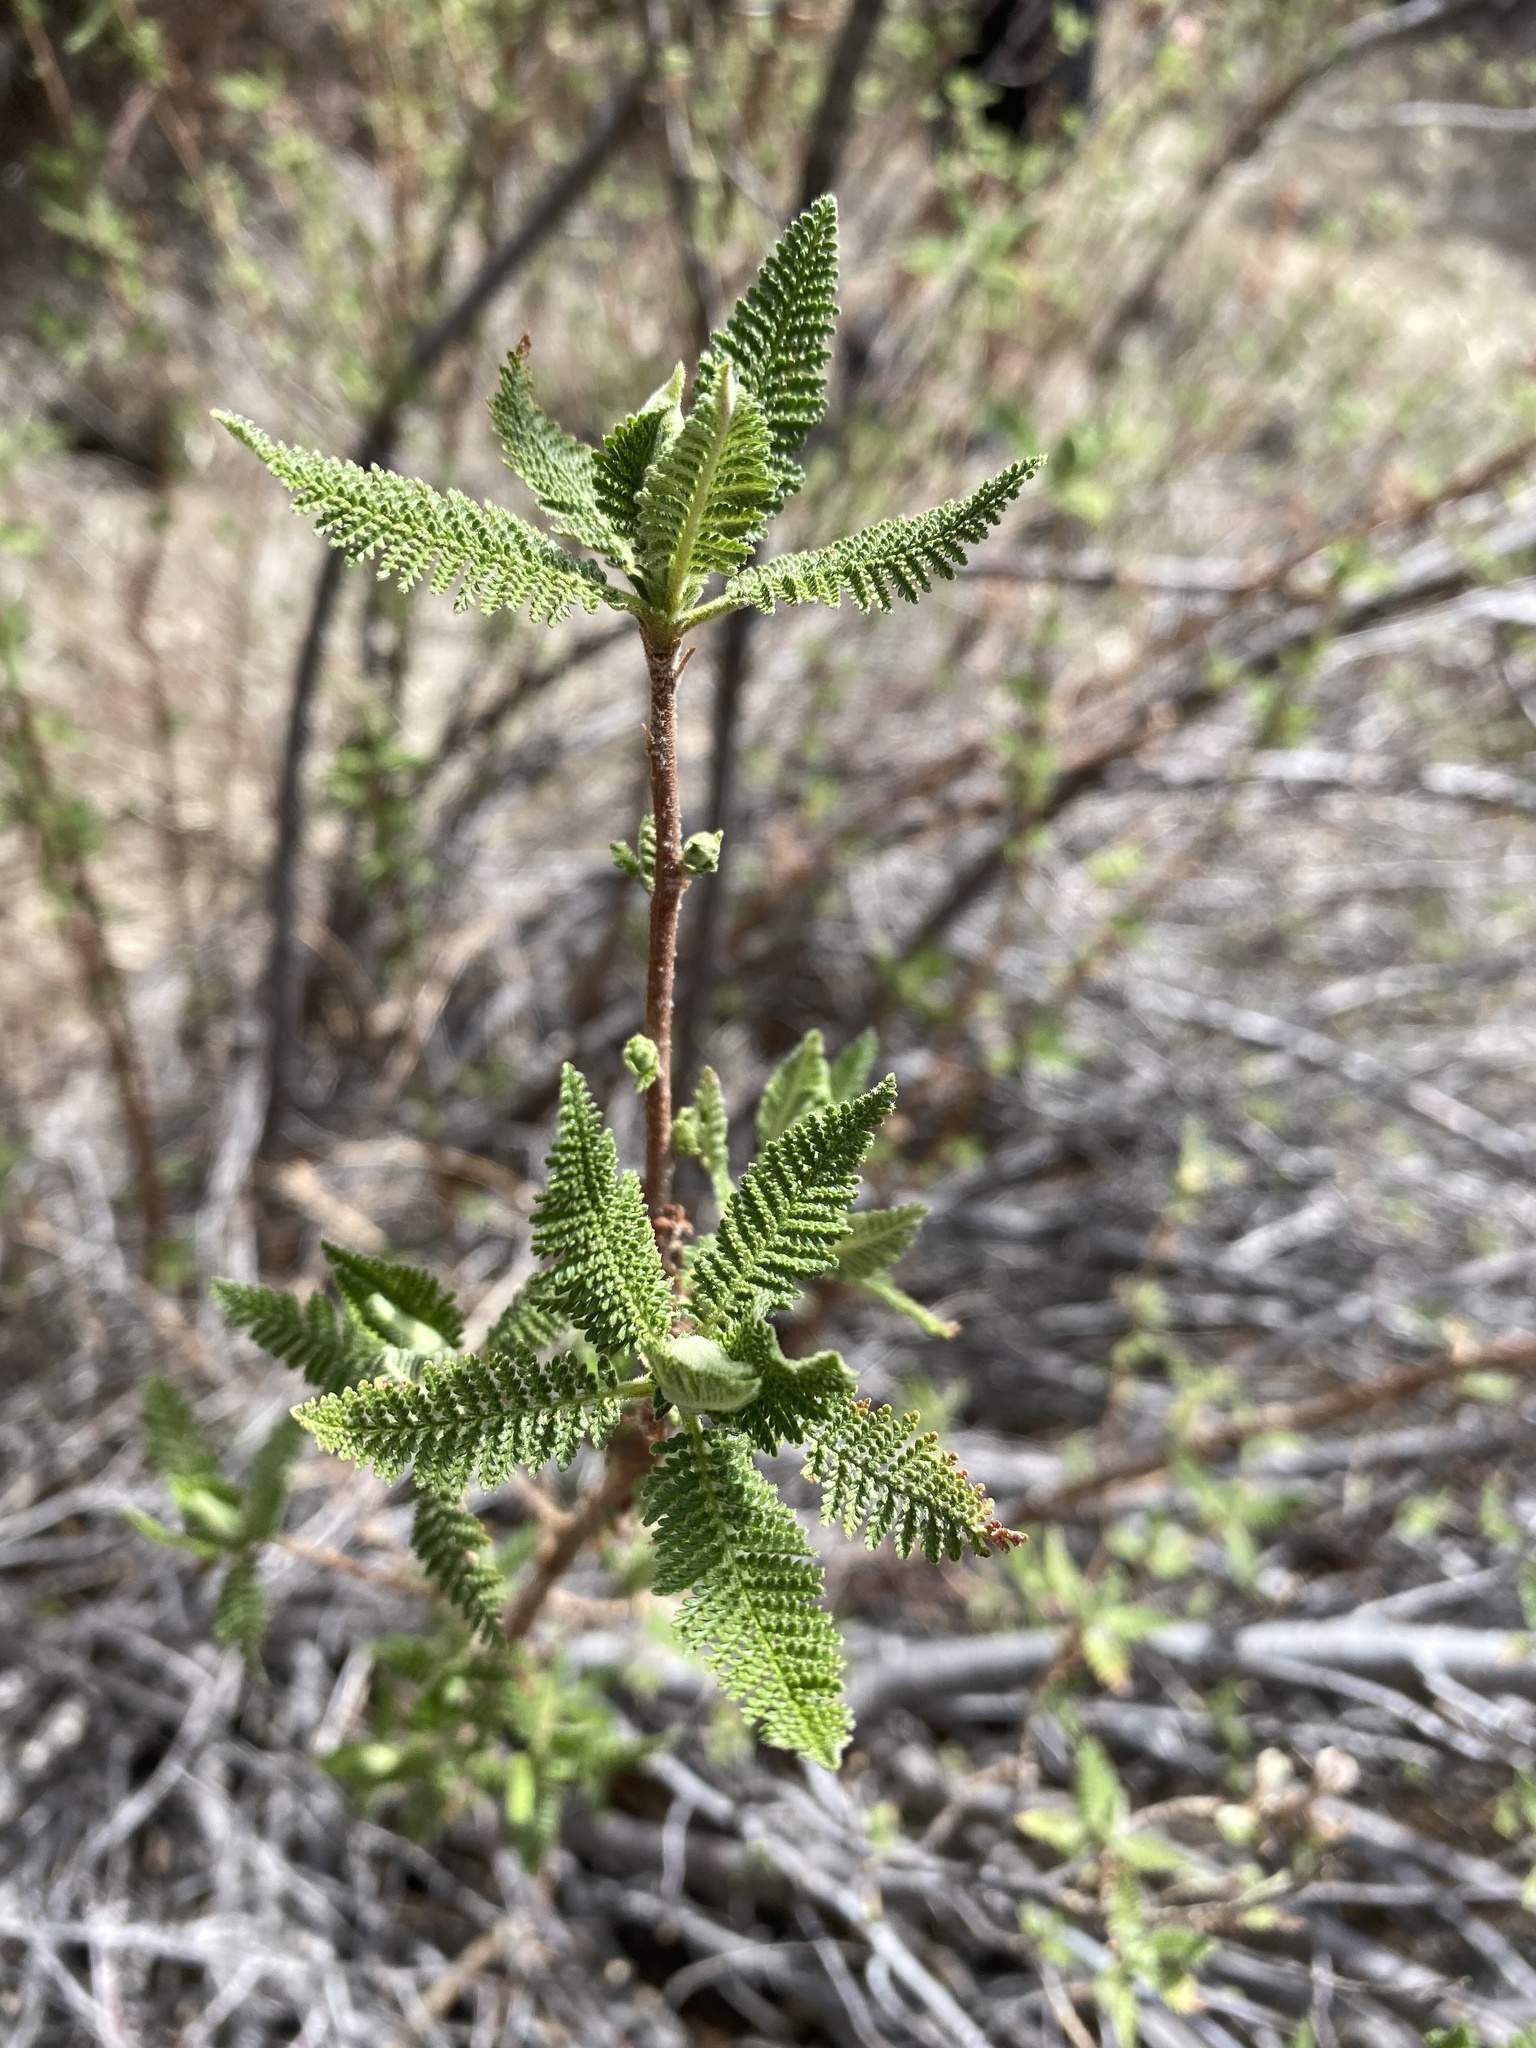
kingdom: Plantae
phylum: Tracheophyta
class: Magnoliopsida
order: Rosales
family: Rosaceae
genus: Chamaebatiaria
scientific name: Chamaebatiaria millefolium
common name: Fernbush
